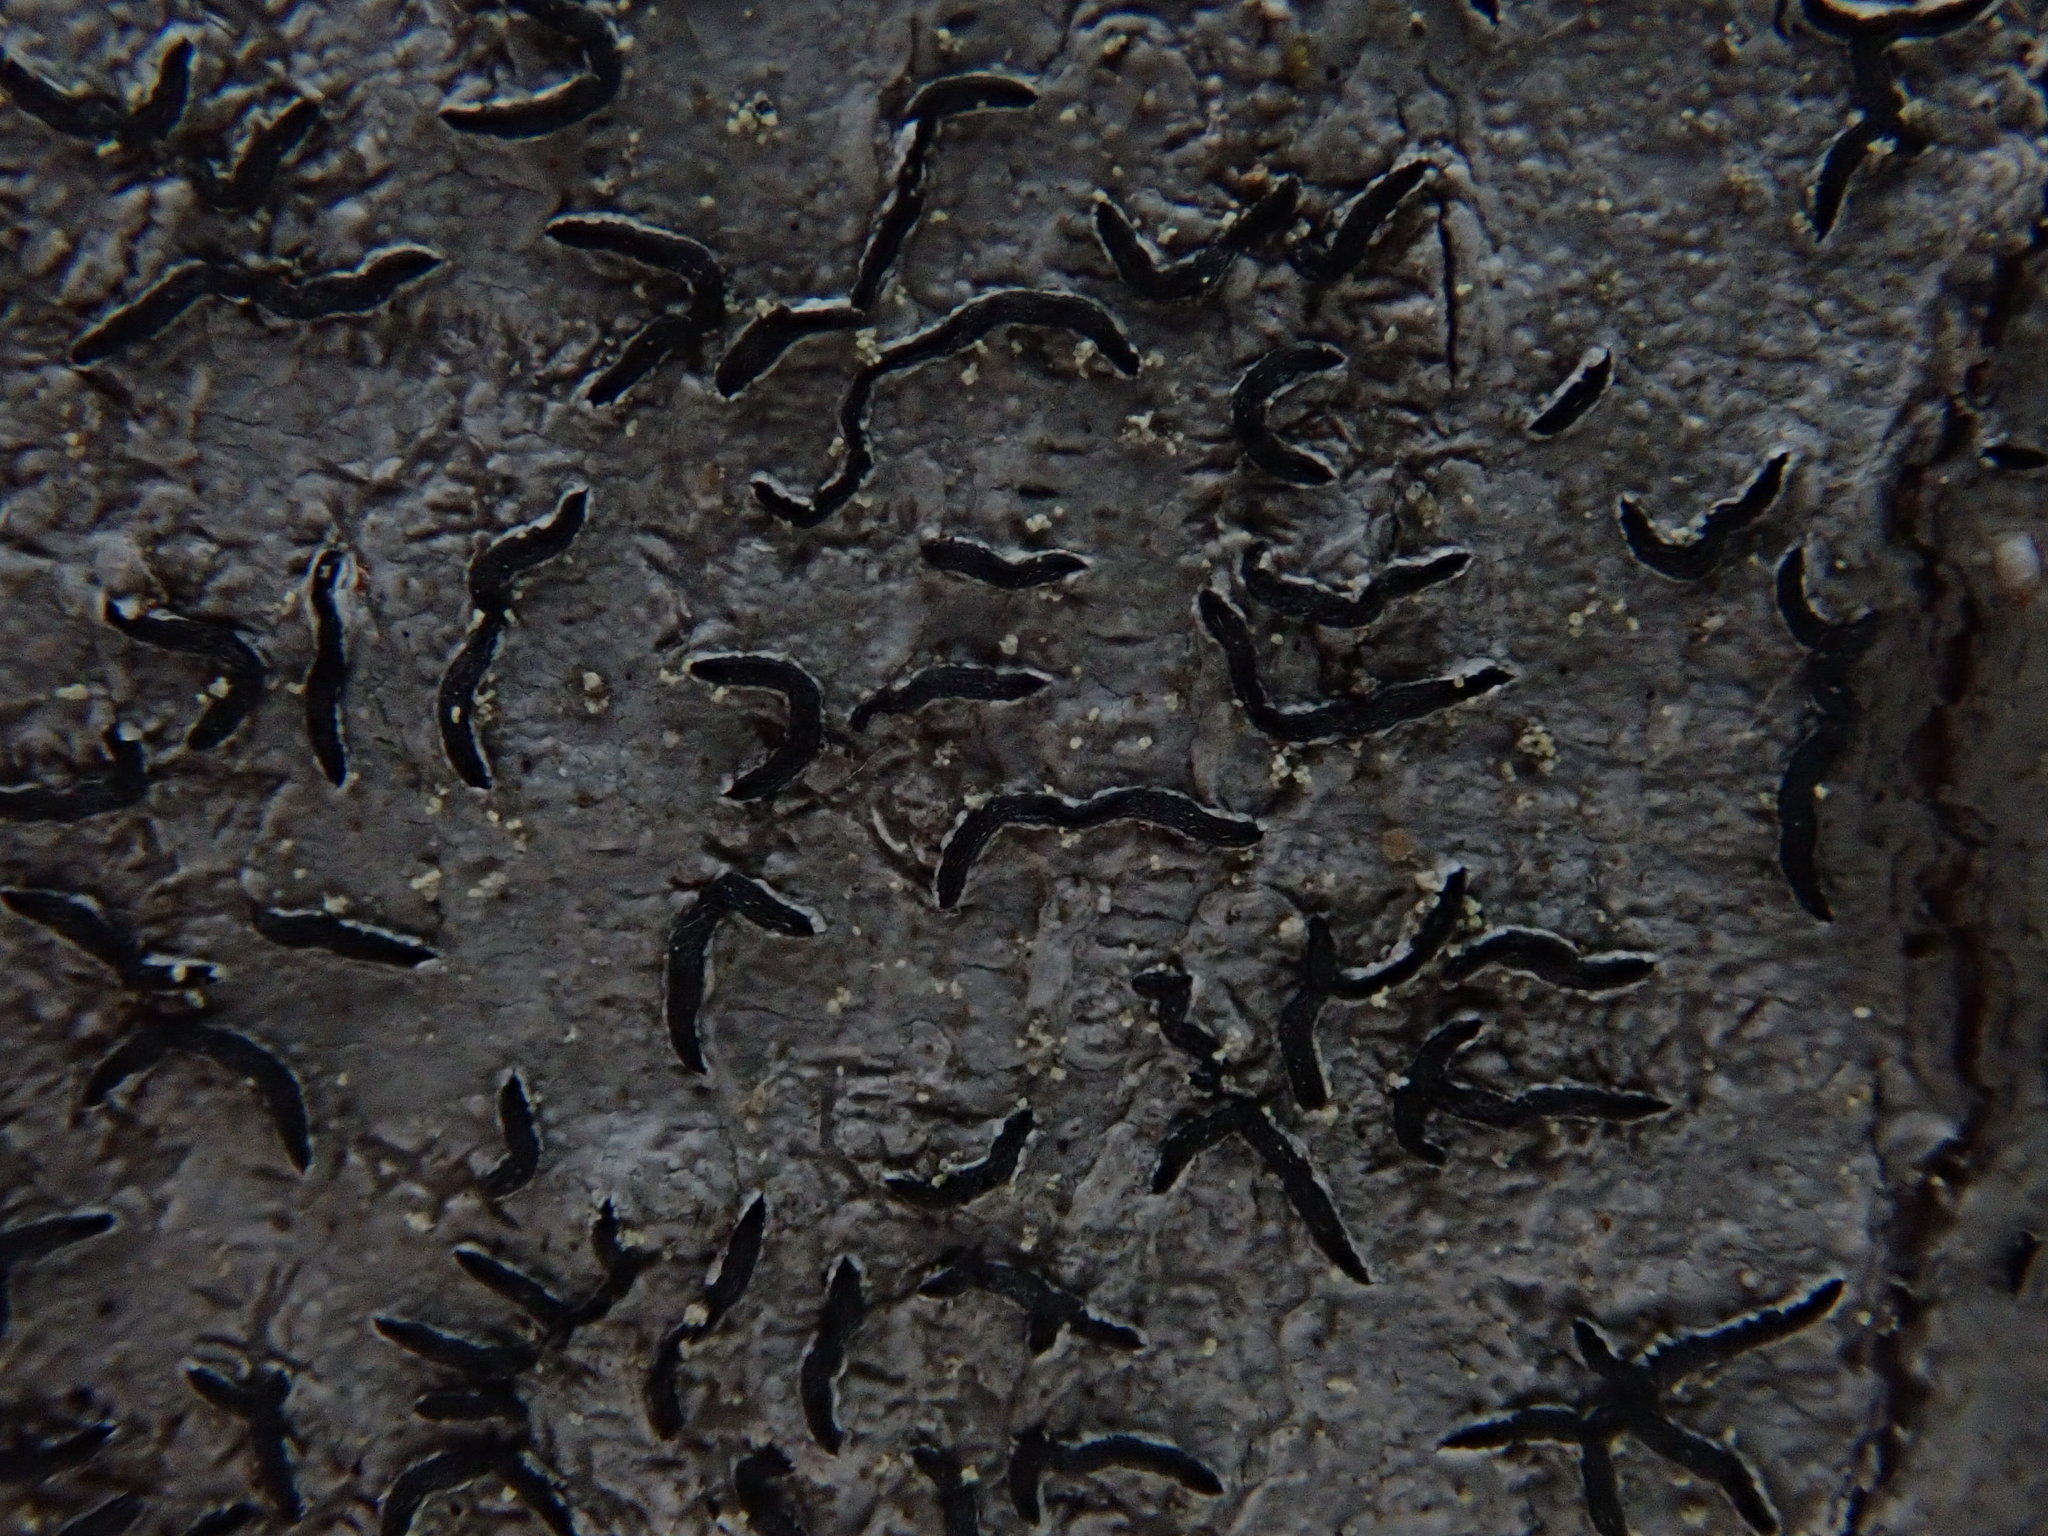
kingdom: Fungi
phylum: Ascomycota
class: Lecanoromycetes
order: Ostropales
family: Graphidaceae
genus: Graphis
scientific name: Graphis scripta
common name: Script lichen
